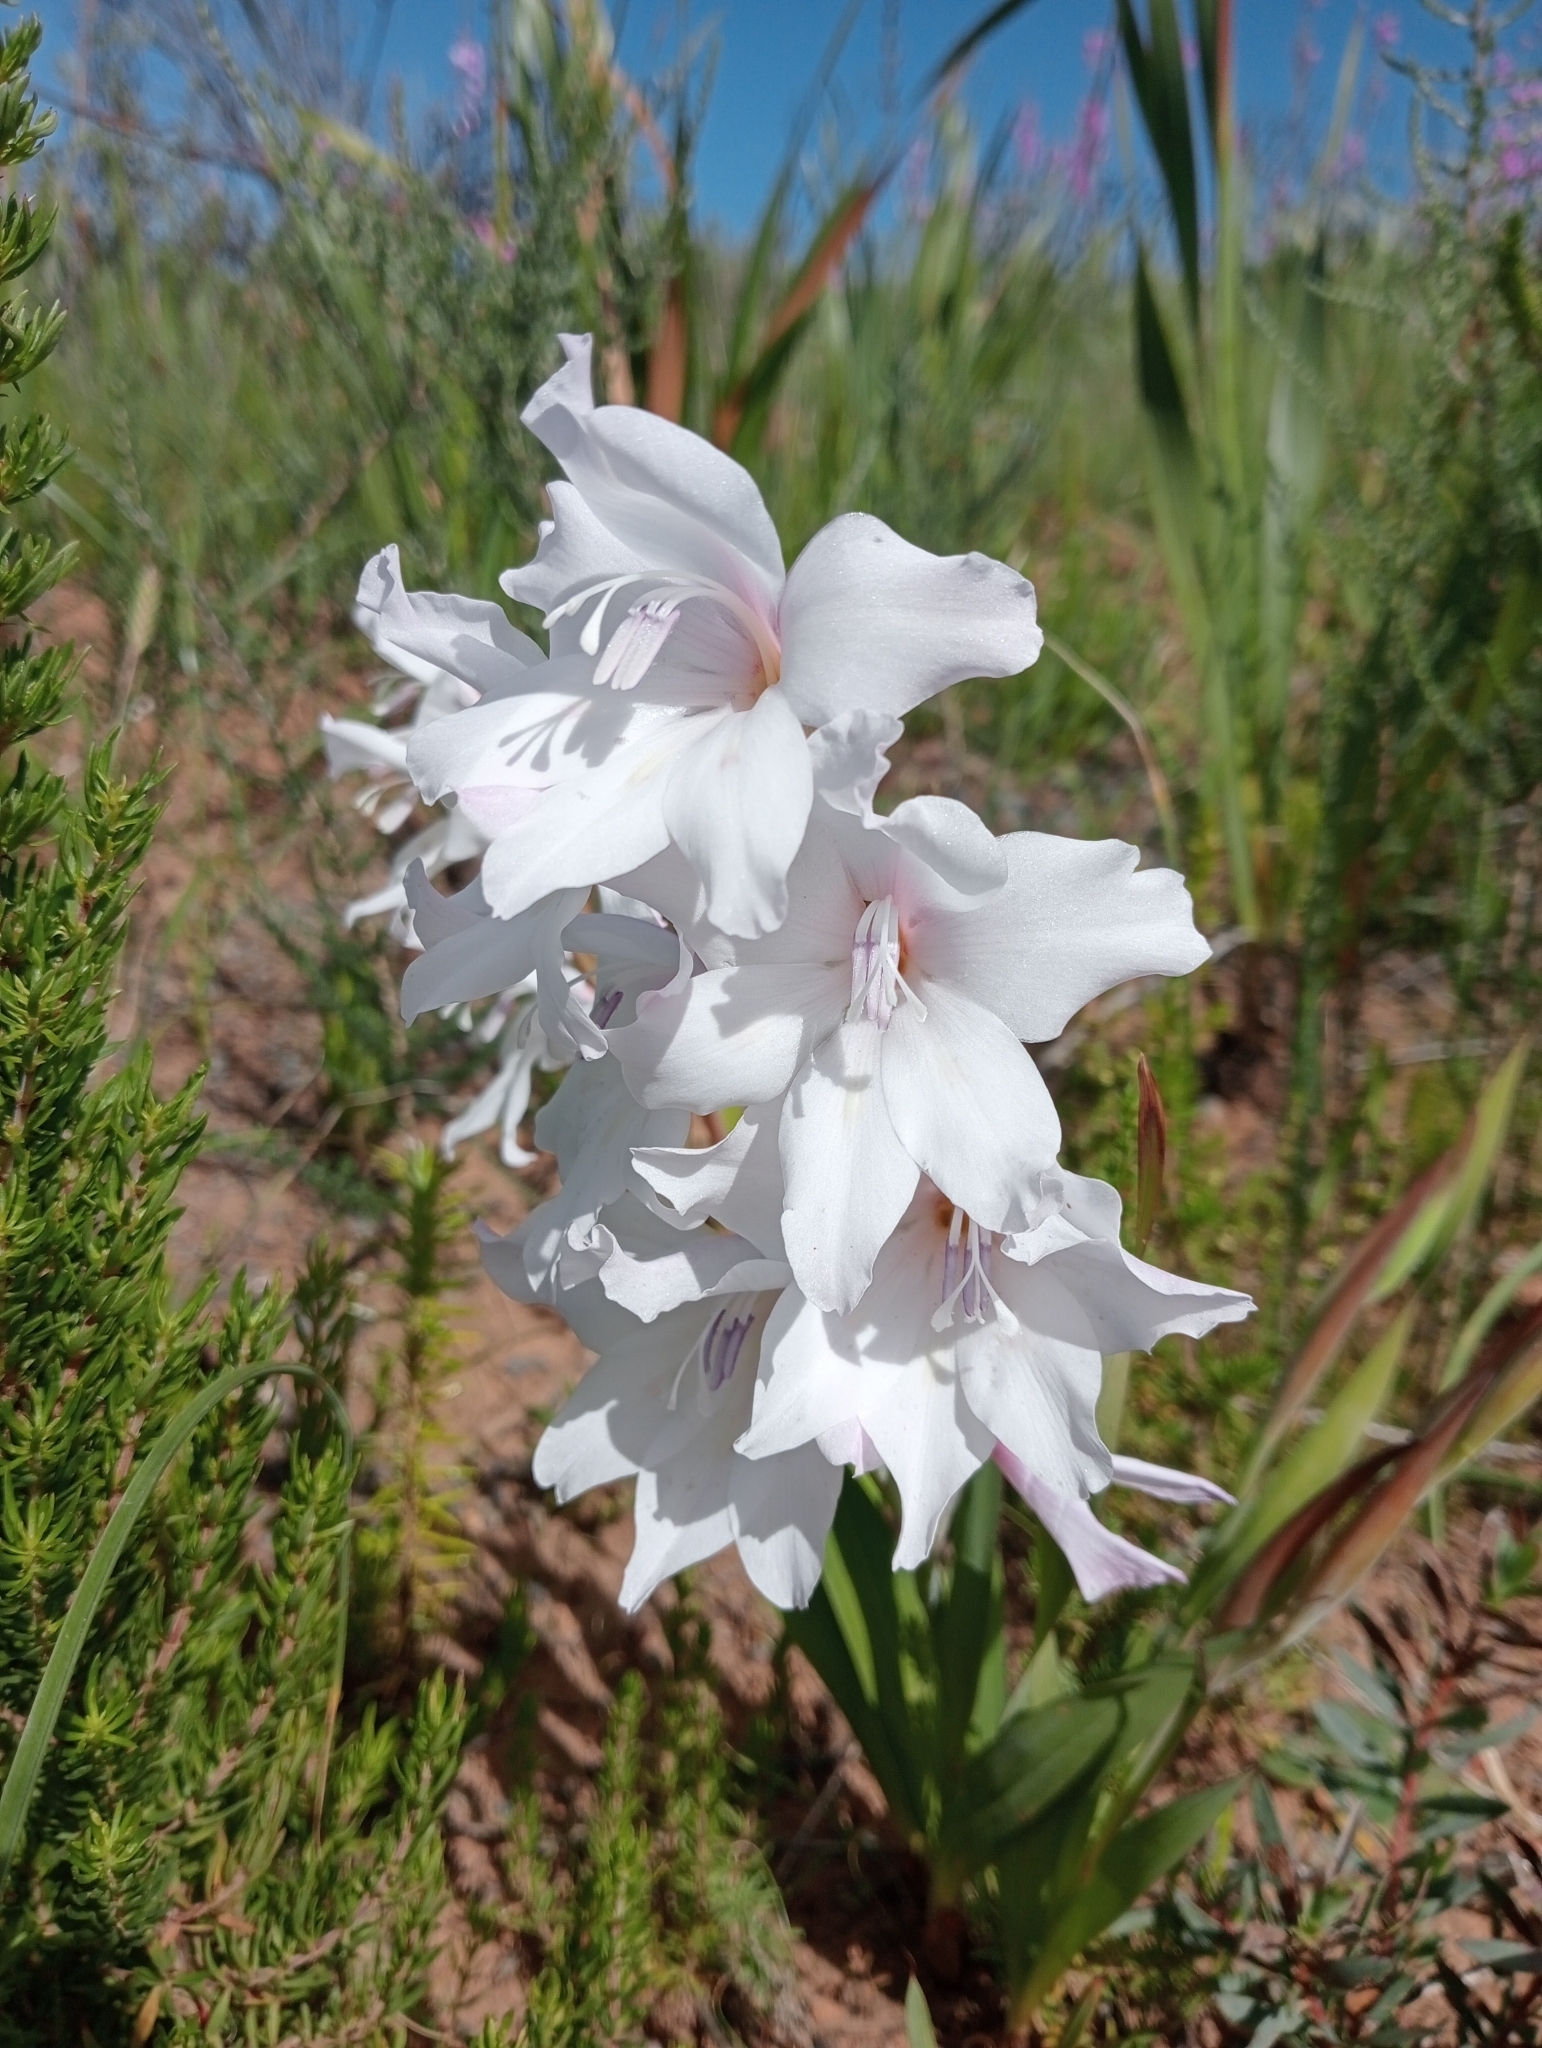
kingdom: Plantae
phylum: Tracheophyta
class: Liliopsida
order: Asparagales
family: Iridaceae
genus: Gladiolus
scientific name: Gladiolus carneus
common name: Painted-lady
